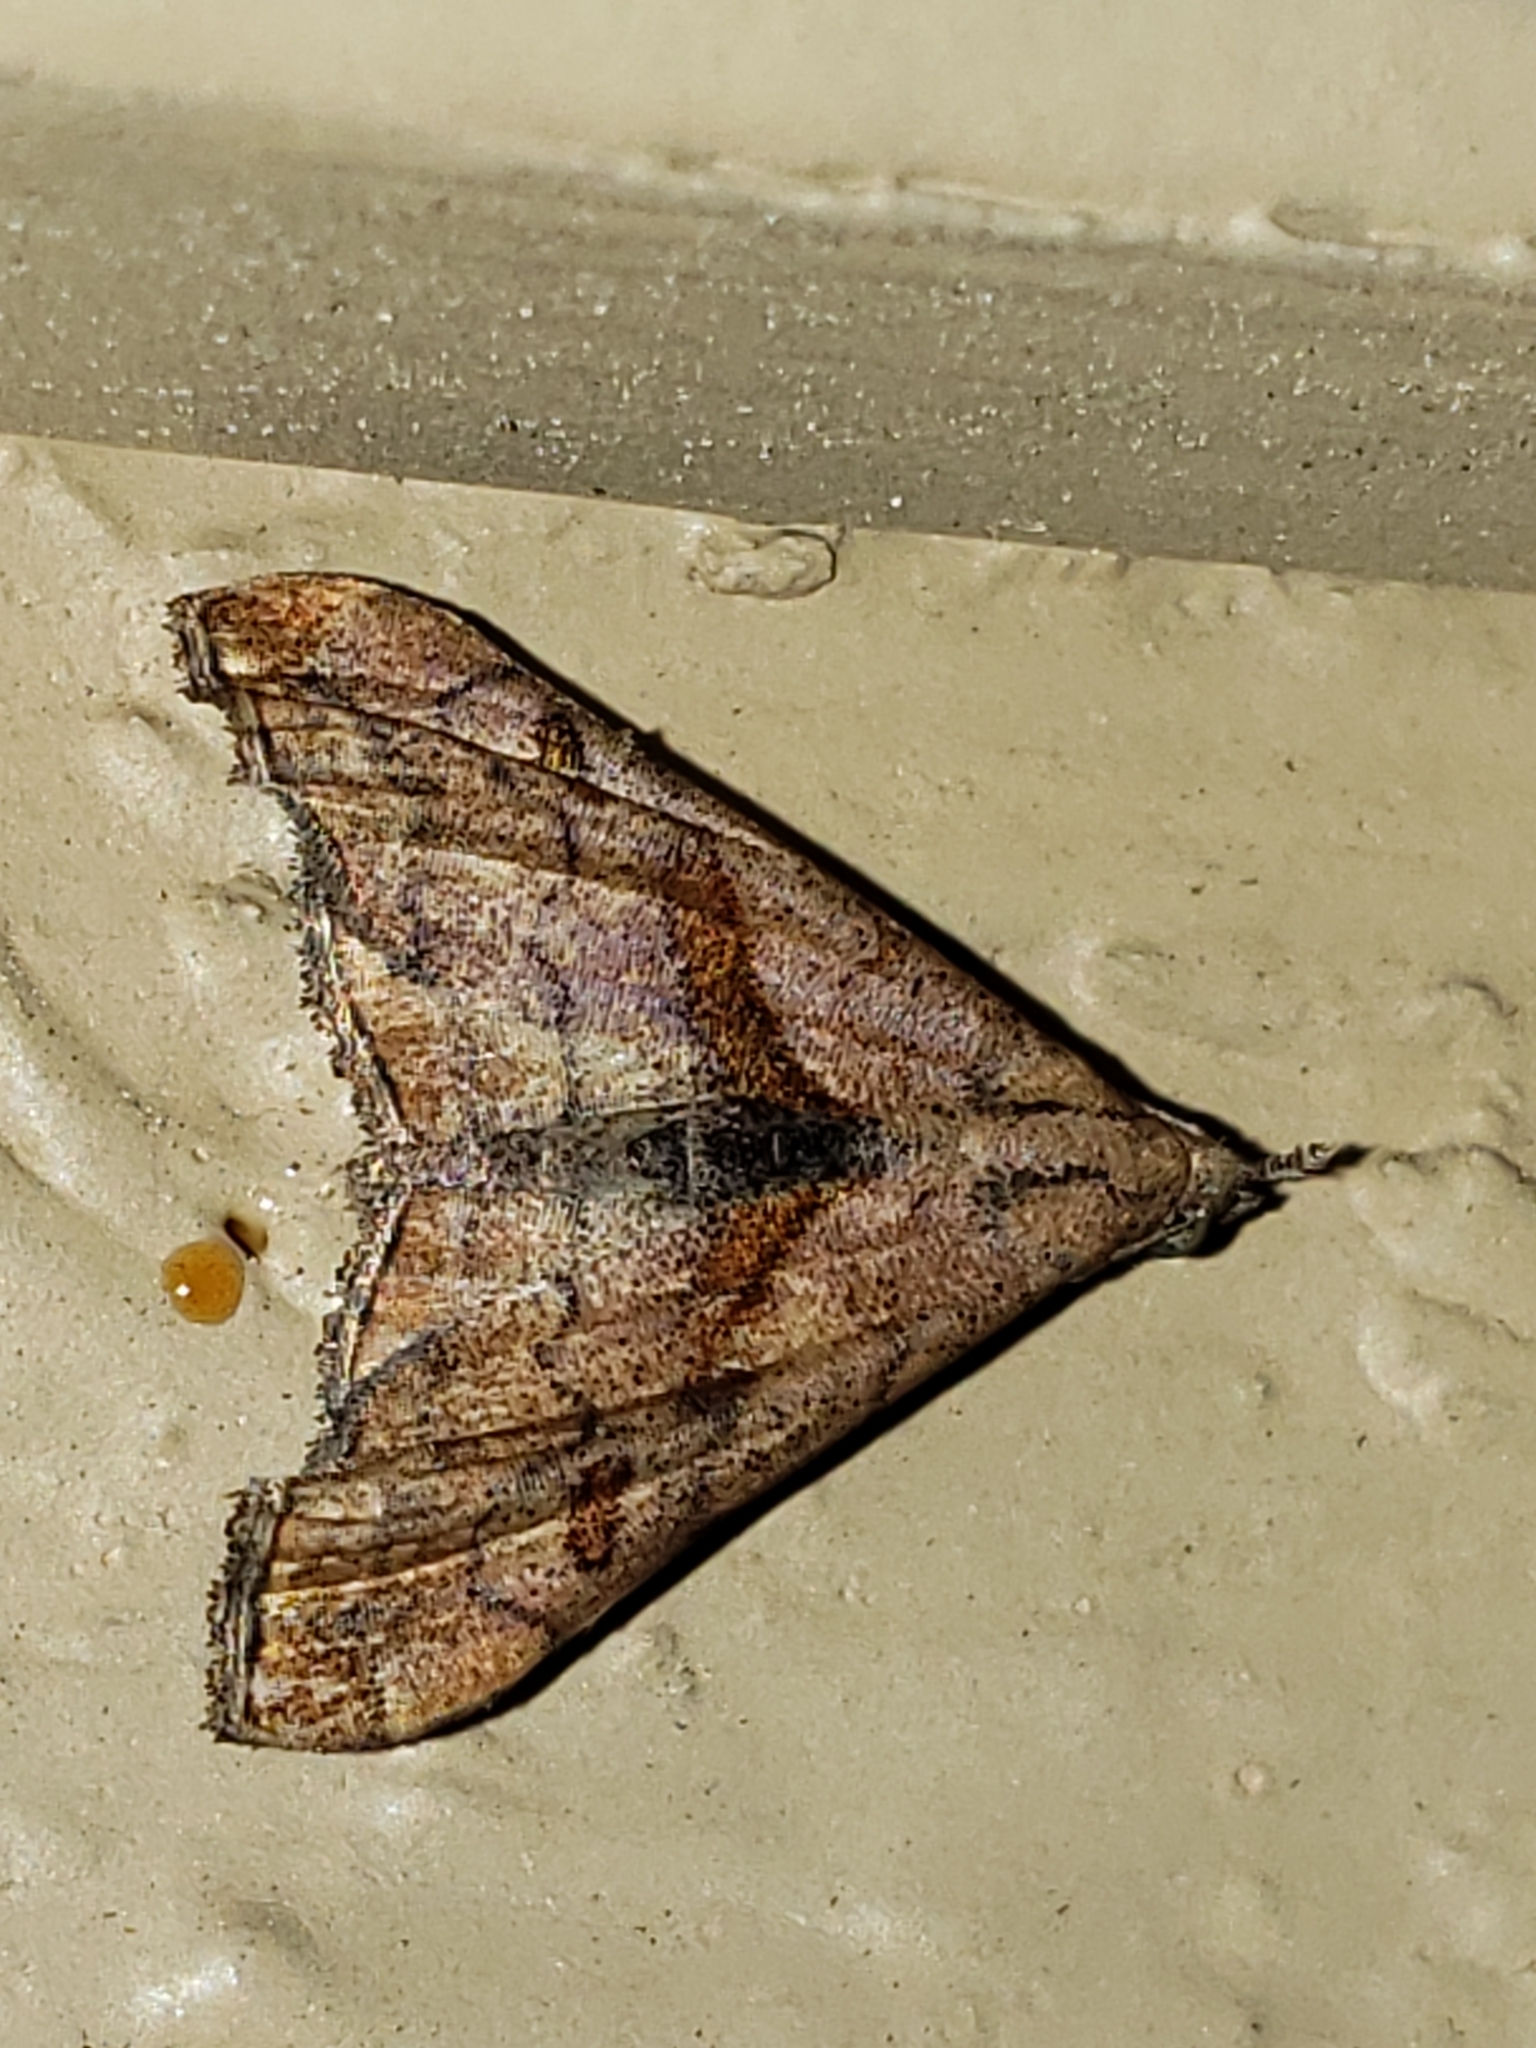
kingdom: Animalia
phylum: Arthropoda
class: Insecta
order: Lepidoptera
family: Erebidae
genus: Palthis
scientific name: Palthis angulalis
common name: Dark-spotted palthis moth
